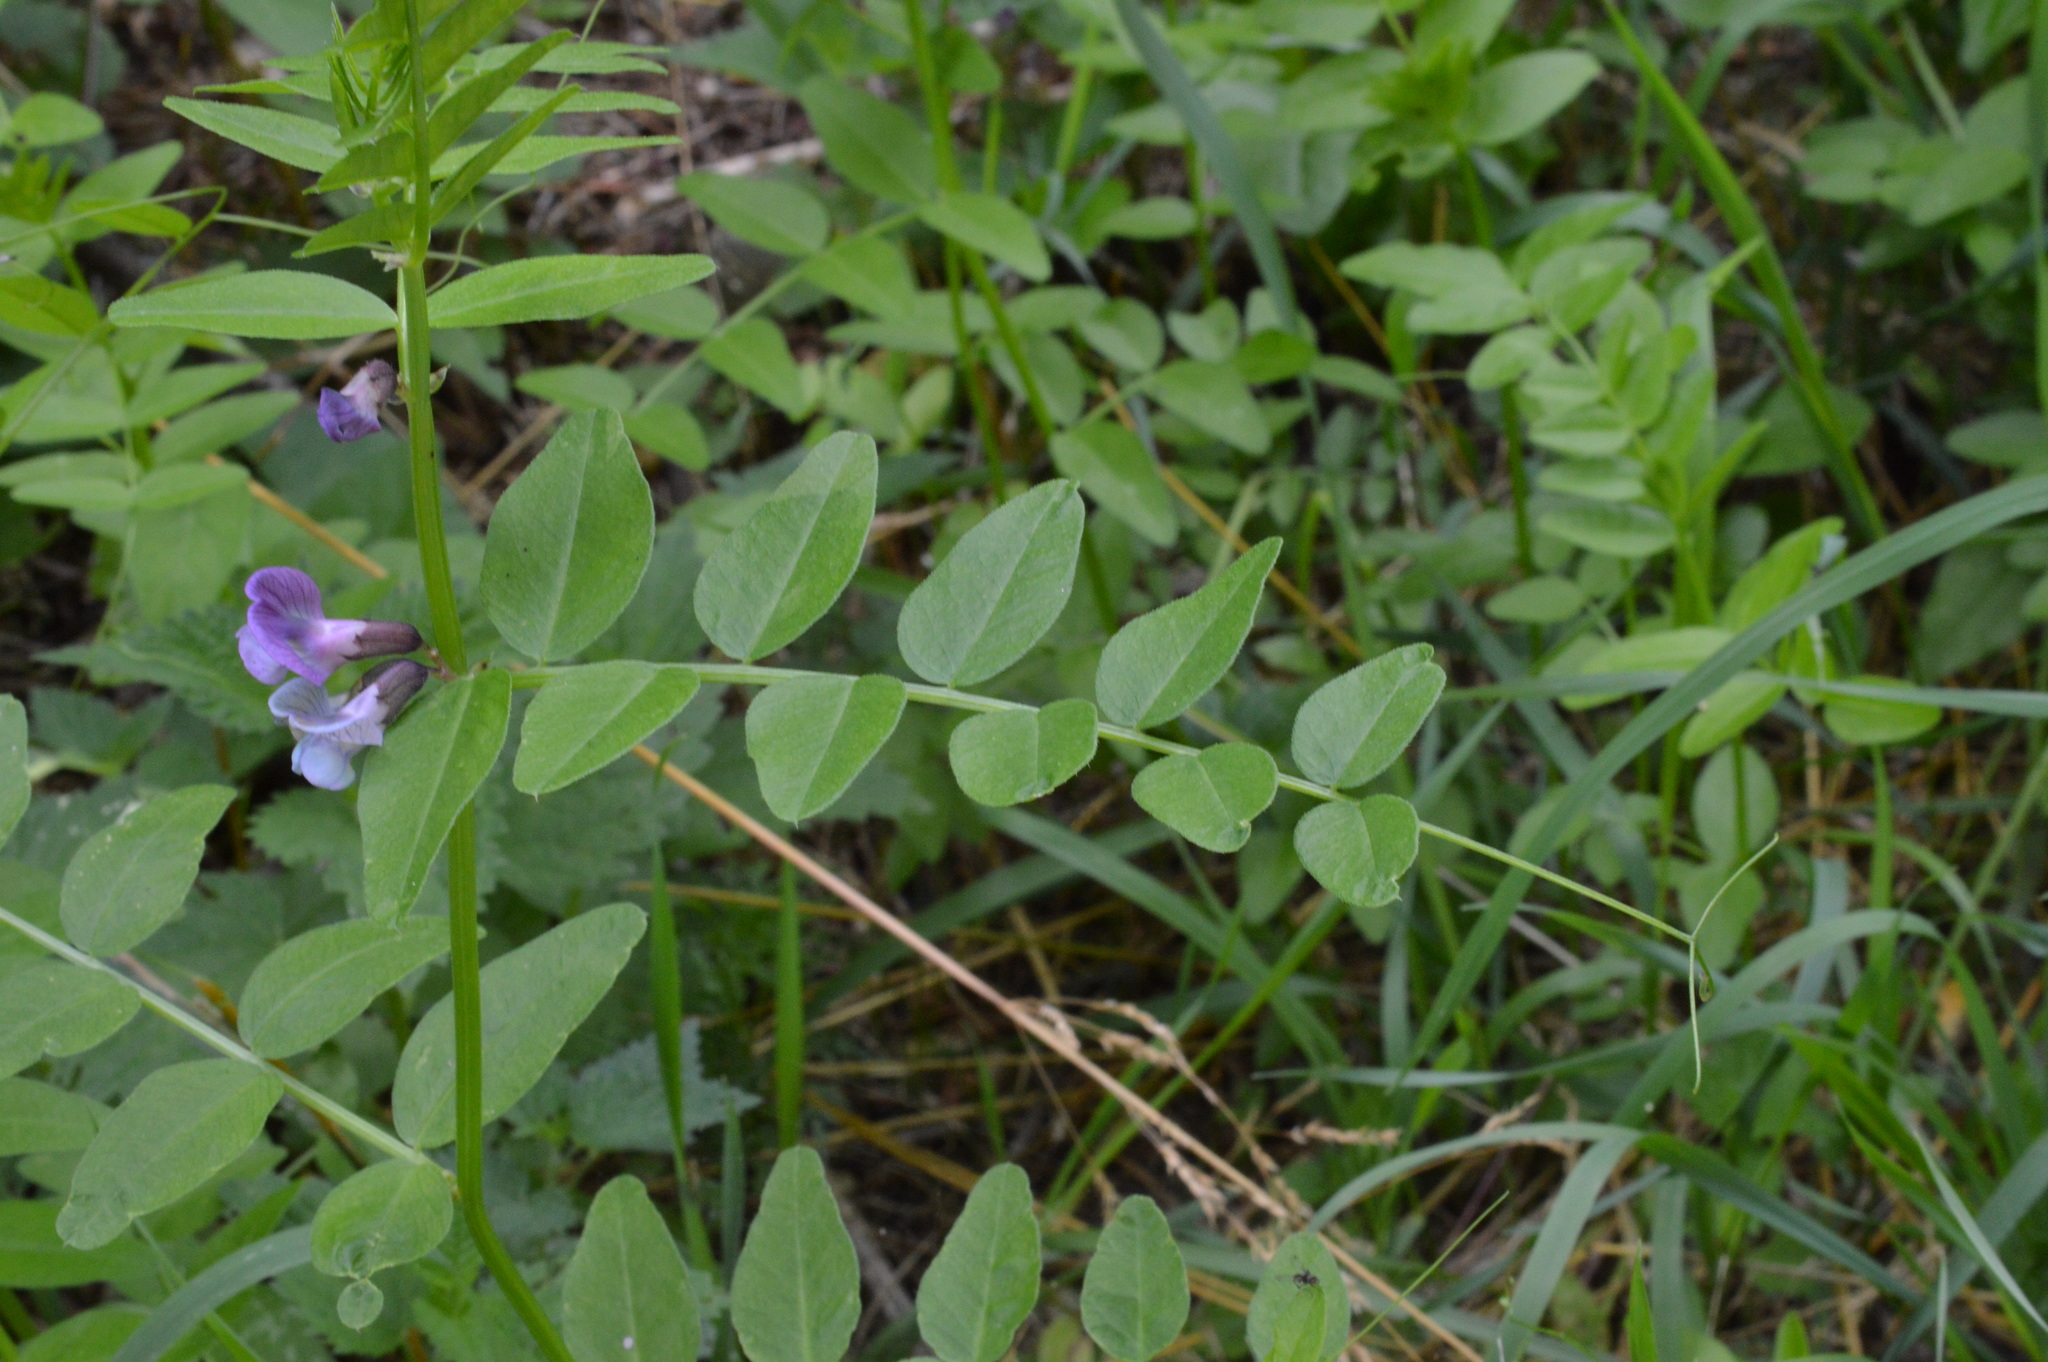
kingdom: Plantae
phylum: Tracheophyta
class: Magnoliopsida
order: Fabales
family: Fabaceae
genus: Vicia
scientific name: Vicia sepium
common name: Bush vetch
